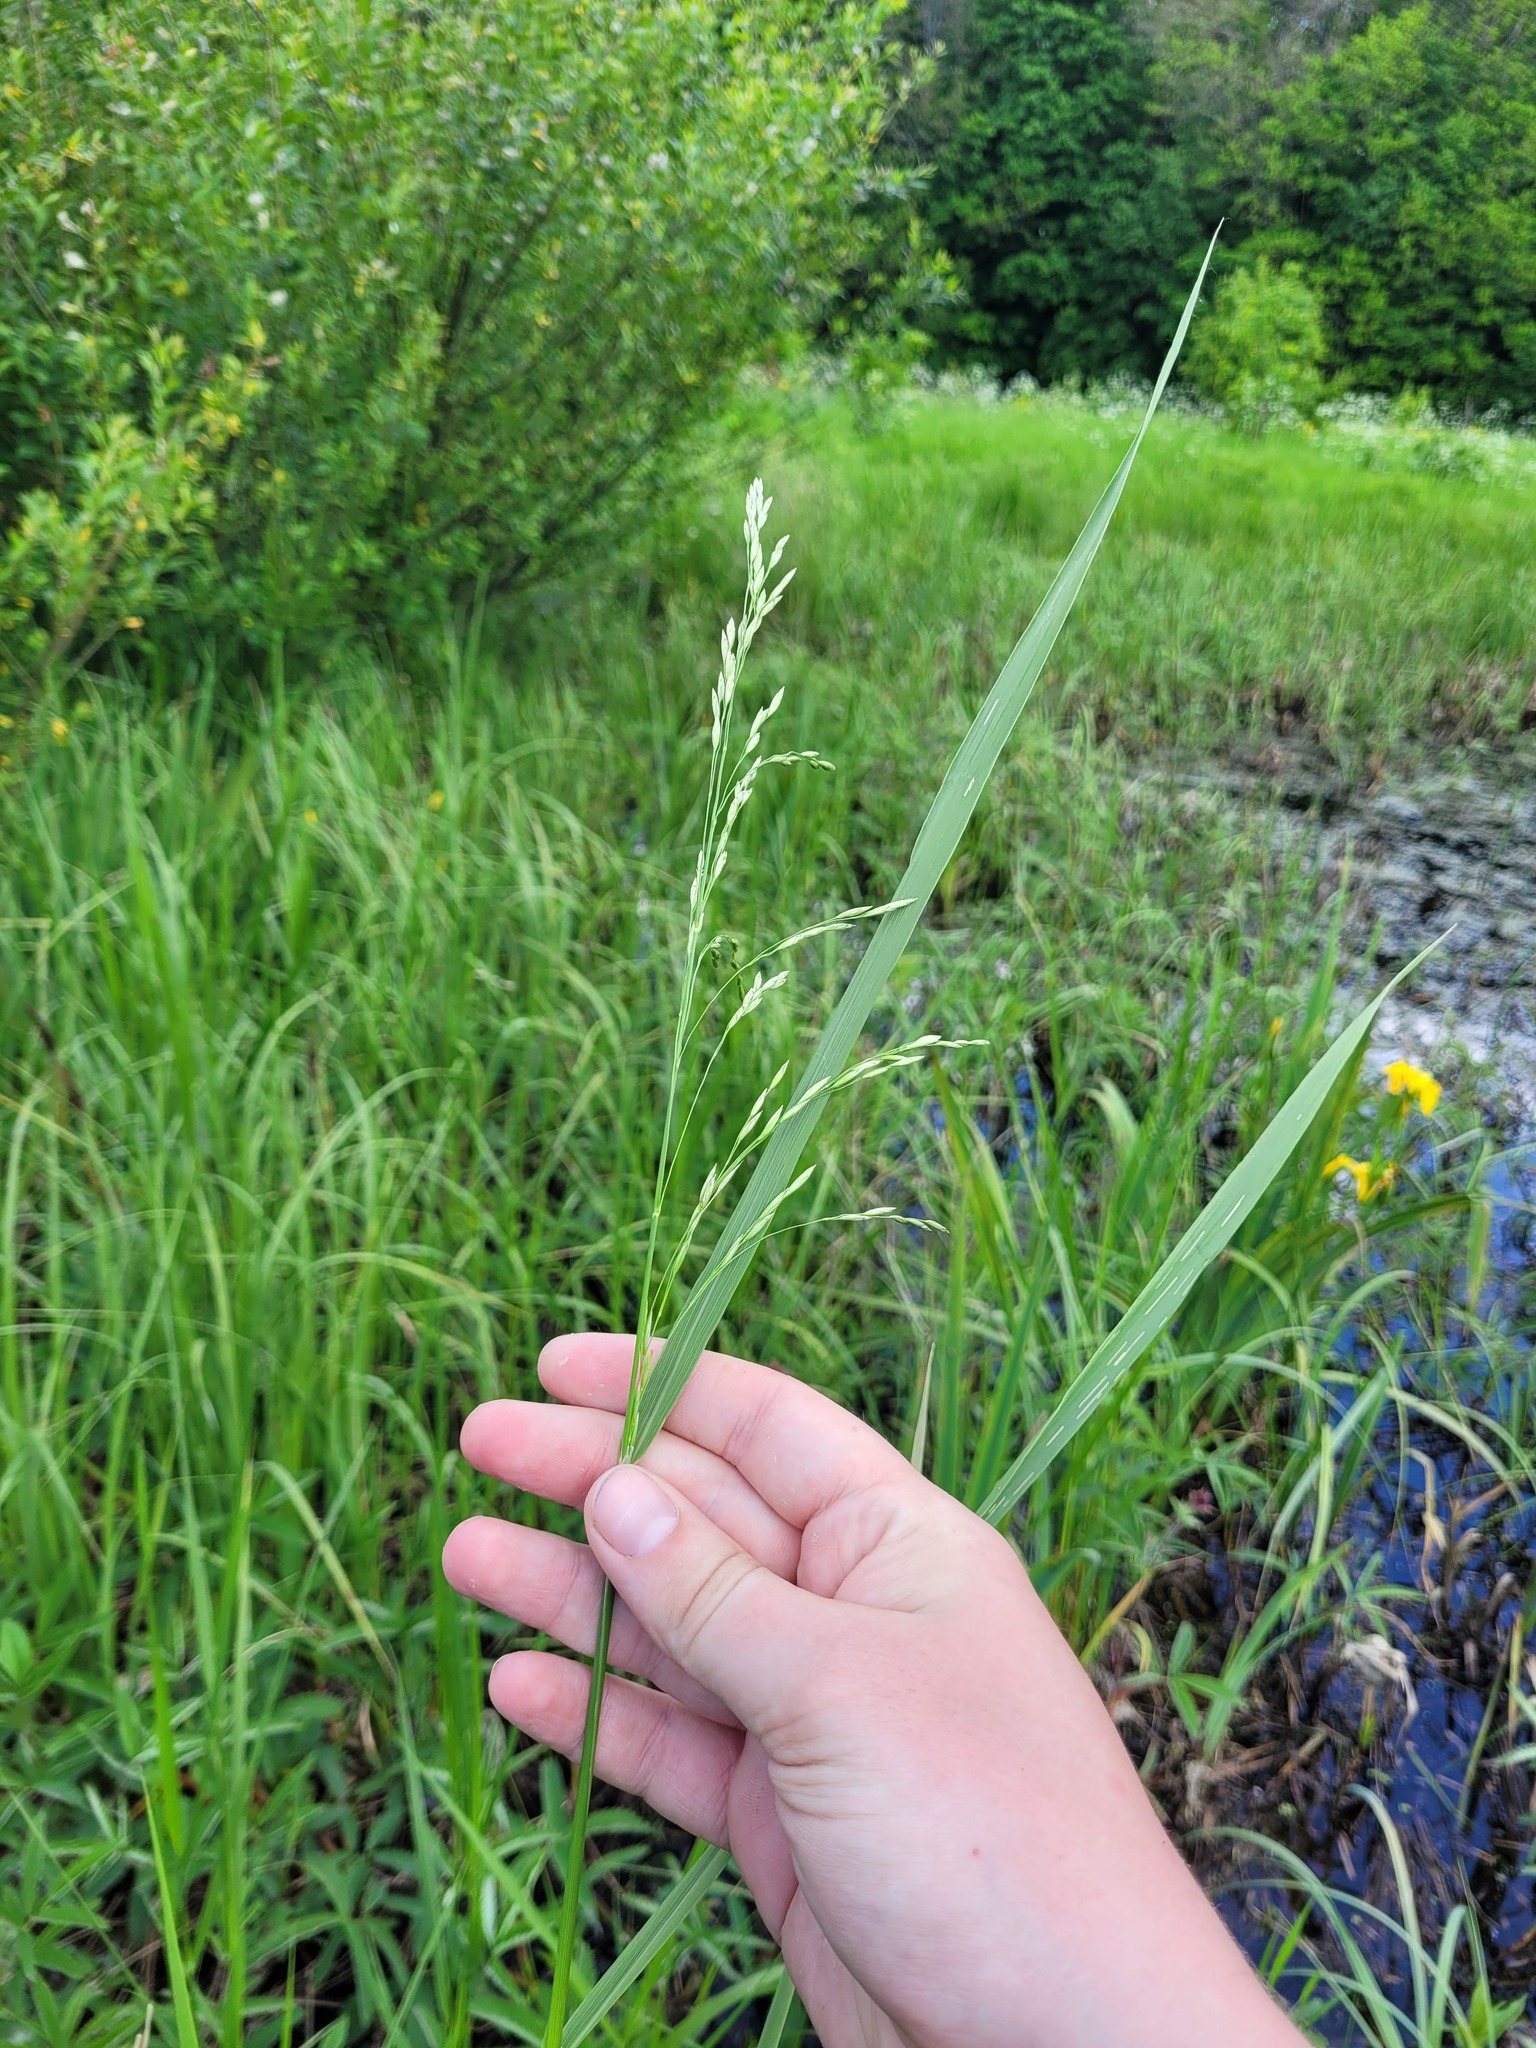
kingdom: Plantae
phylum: Tracheophyta
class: Liliopsida
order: Poales
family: Poaceae
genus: Scolochloa
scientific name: Scolochloa festucacea
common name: Common rivergrass
